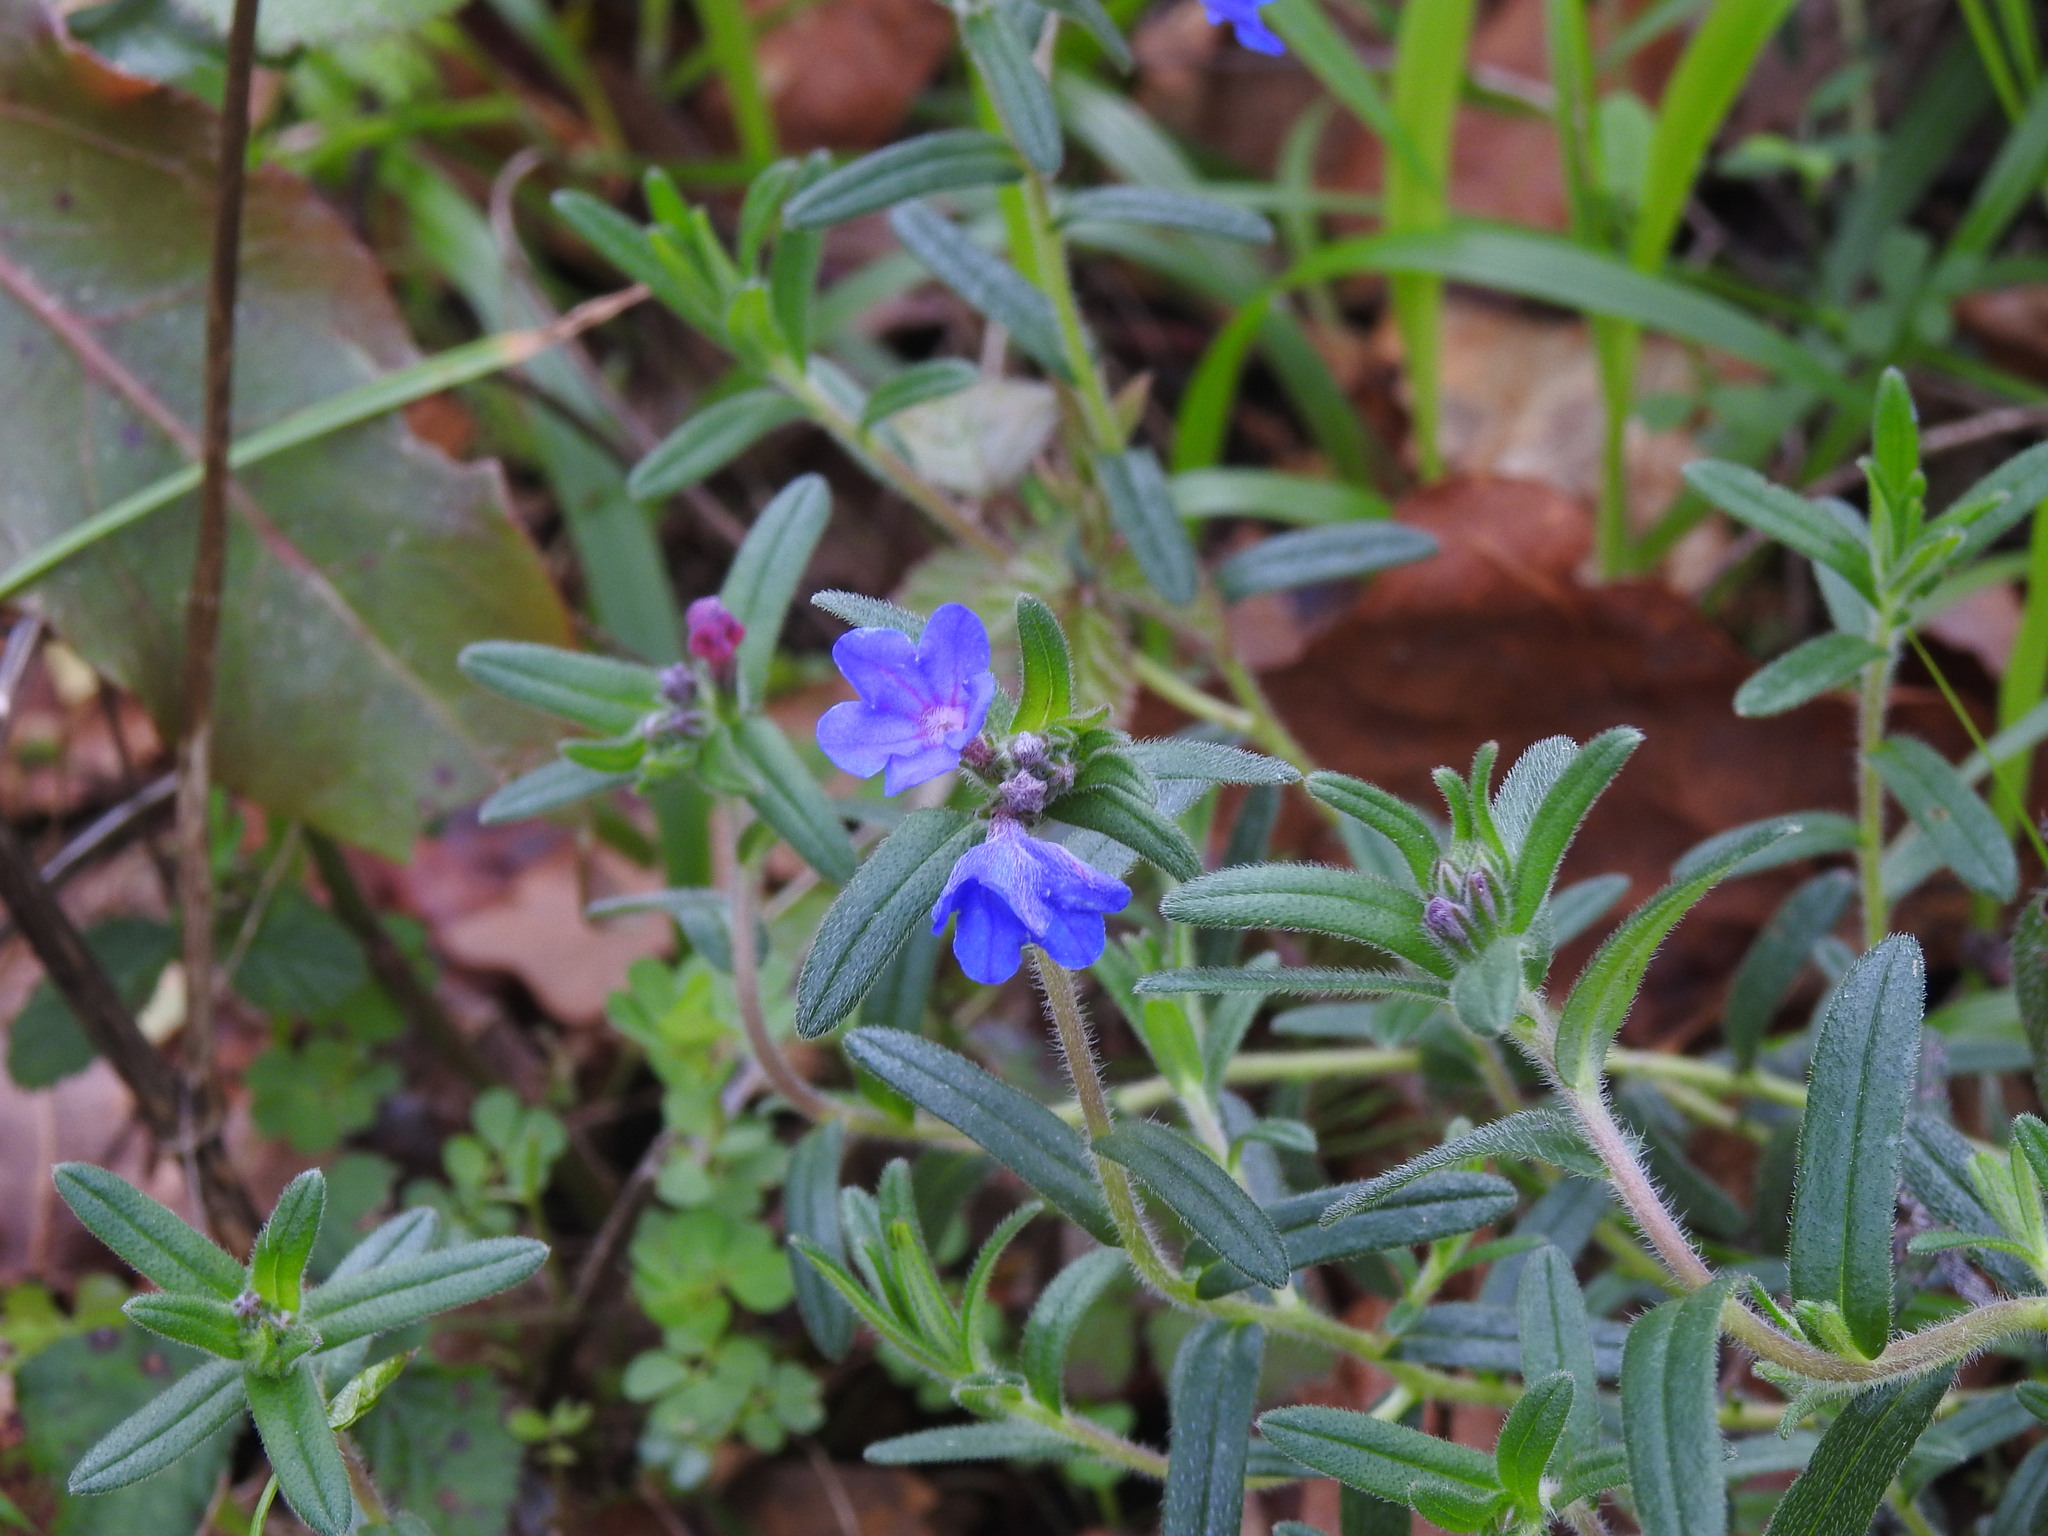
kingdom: Plantae
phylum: Tracheophyta
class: Magnoliopsida
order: Boraginales
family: Boraginaceae
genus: Glandora
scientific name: Glandora prostrata
